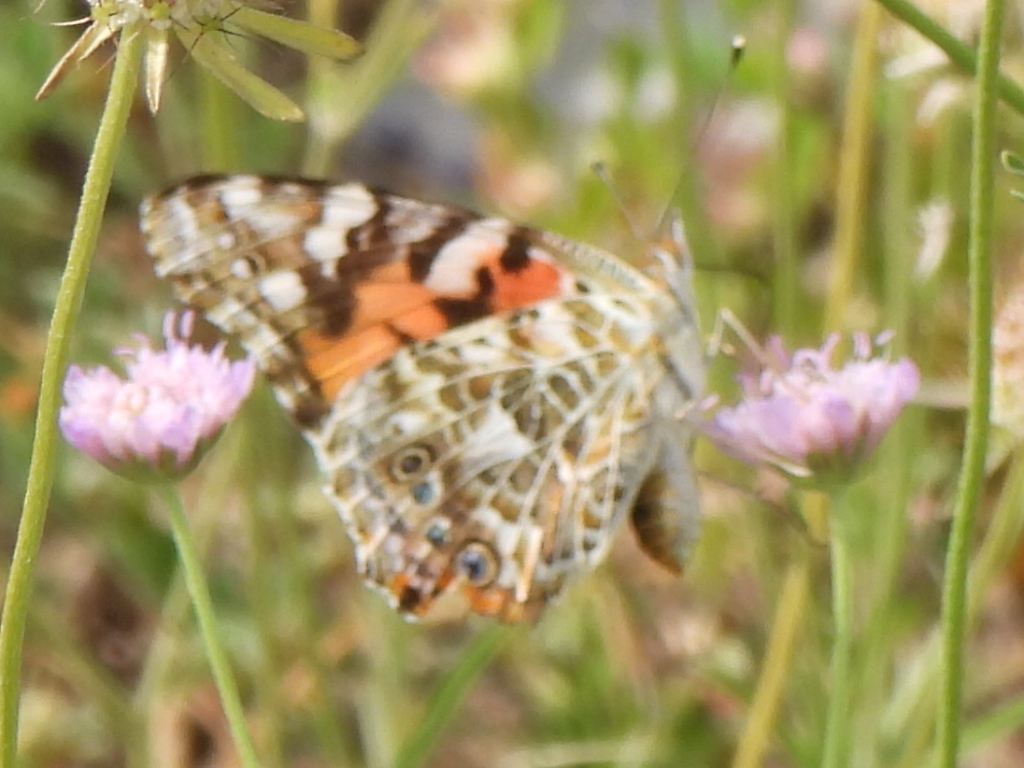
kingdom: Animalia
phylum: Arthropoda
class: Insecta
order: Lepidoptera
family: Nymphalidae
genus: Vanessa
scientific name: Vanessa cardui
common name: Painted lady
